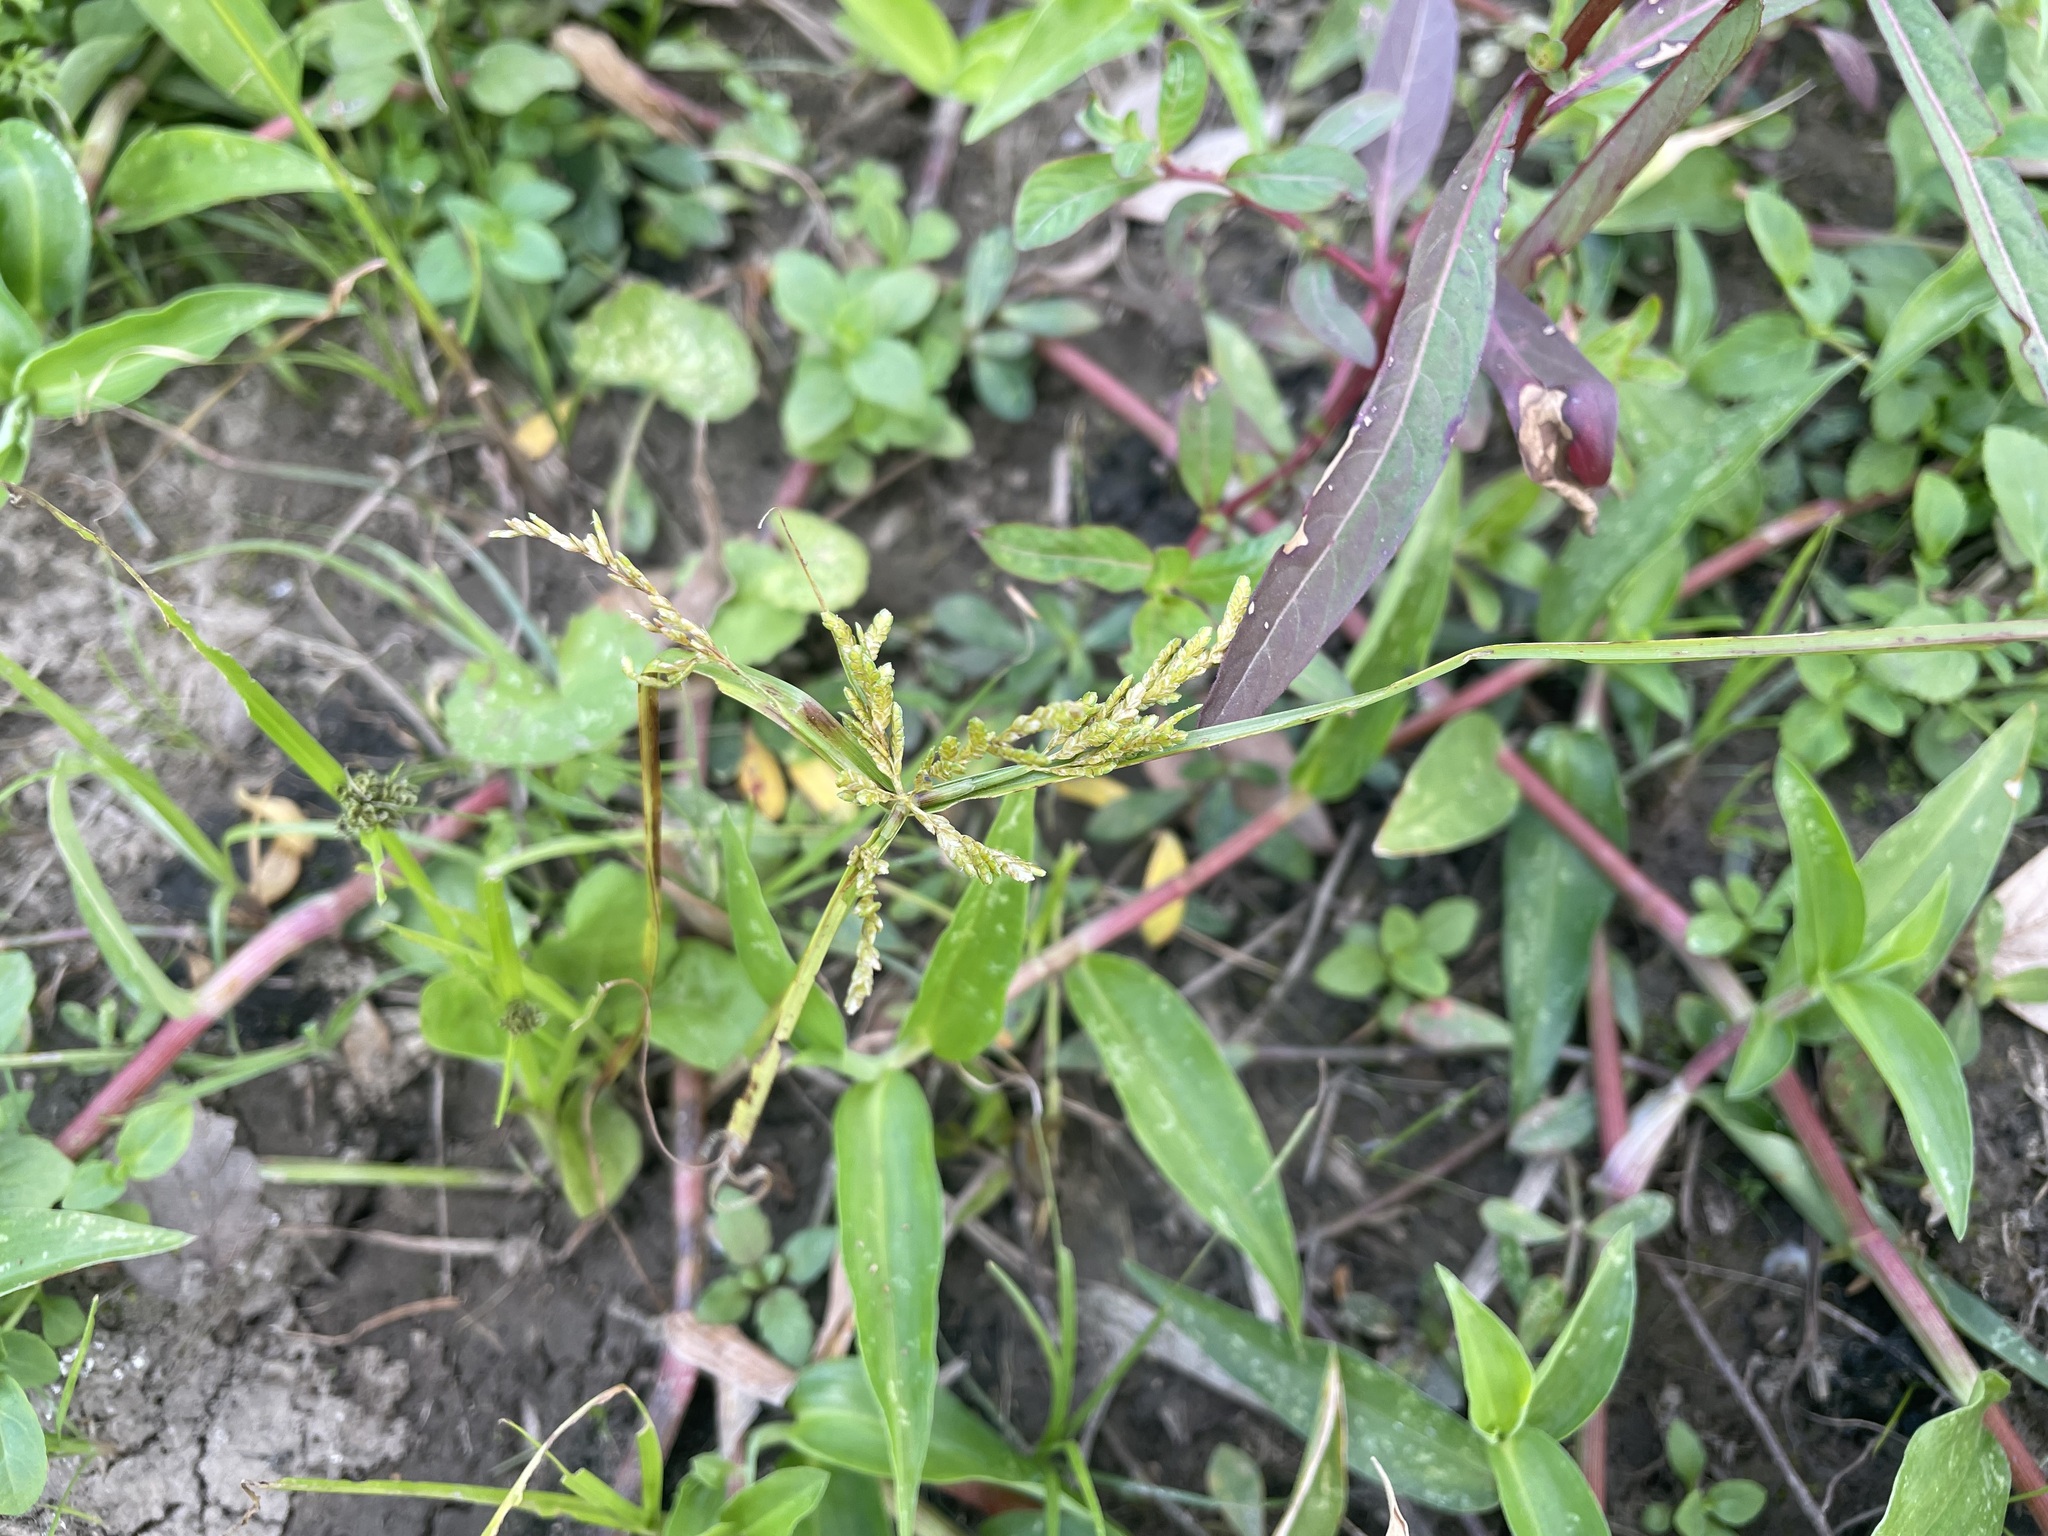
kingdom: Plantae
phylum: Tracheophyta
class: Liliopsida
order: Poales
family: Cyperaceae
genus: Cyperus
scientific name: Cyperus iria
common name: Ricefield flatsedge
